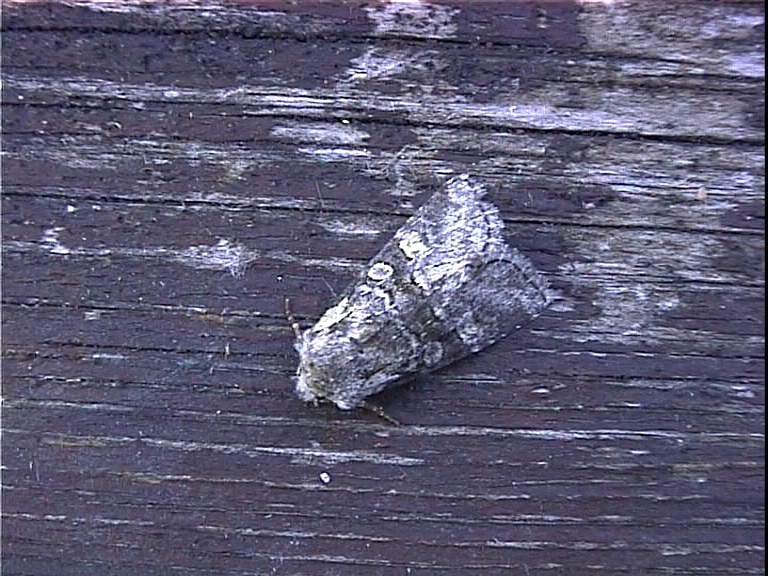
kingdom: Animalia
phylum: Arthropoda
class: Insecta
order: Lepidoptera
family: Noctuidae
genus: Brachylomia
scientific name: Brachylomia viminalis
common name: Minor shoulder-knot
